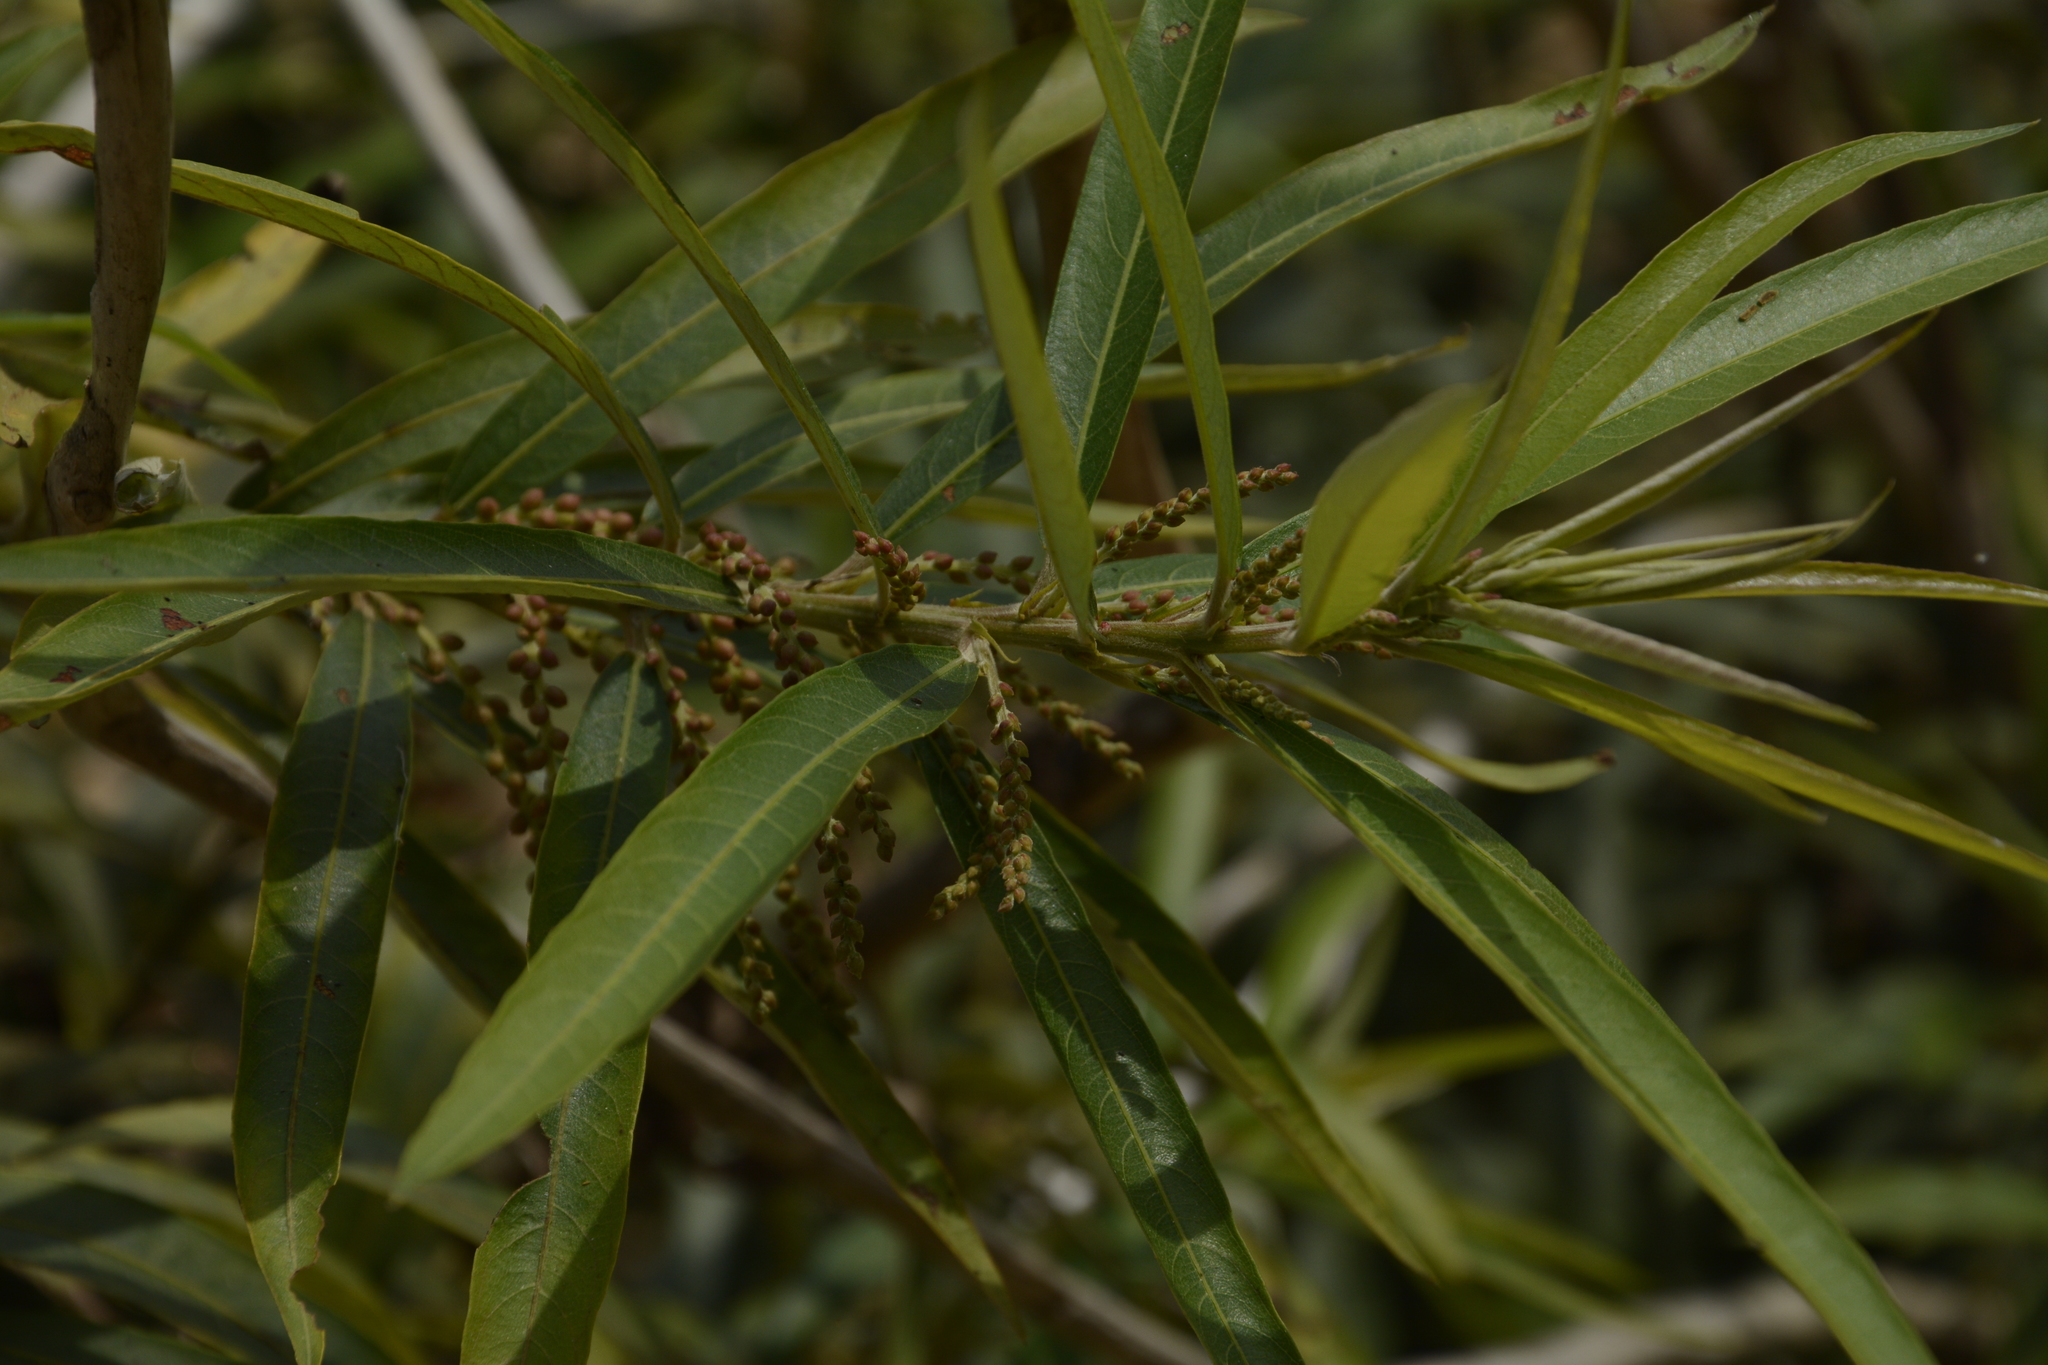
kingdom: Plantae
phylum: Tracheophyta
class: Magnoliopsida
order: Malpighiales
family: Euphorbiaceae
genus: Homonoia
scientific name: Homonoia riparia
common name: Willow-leaved water croton
